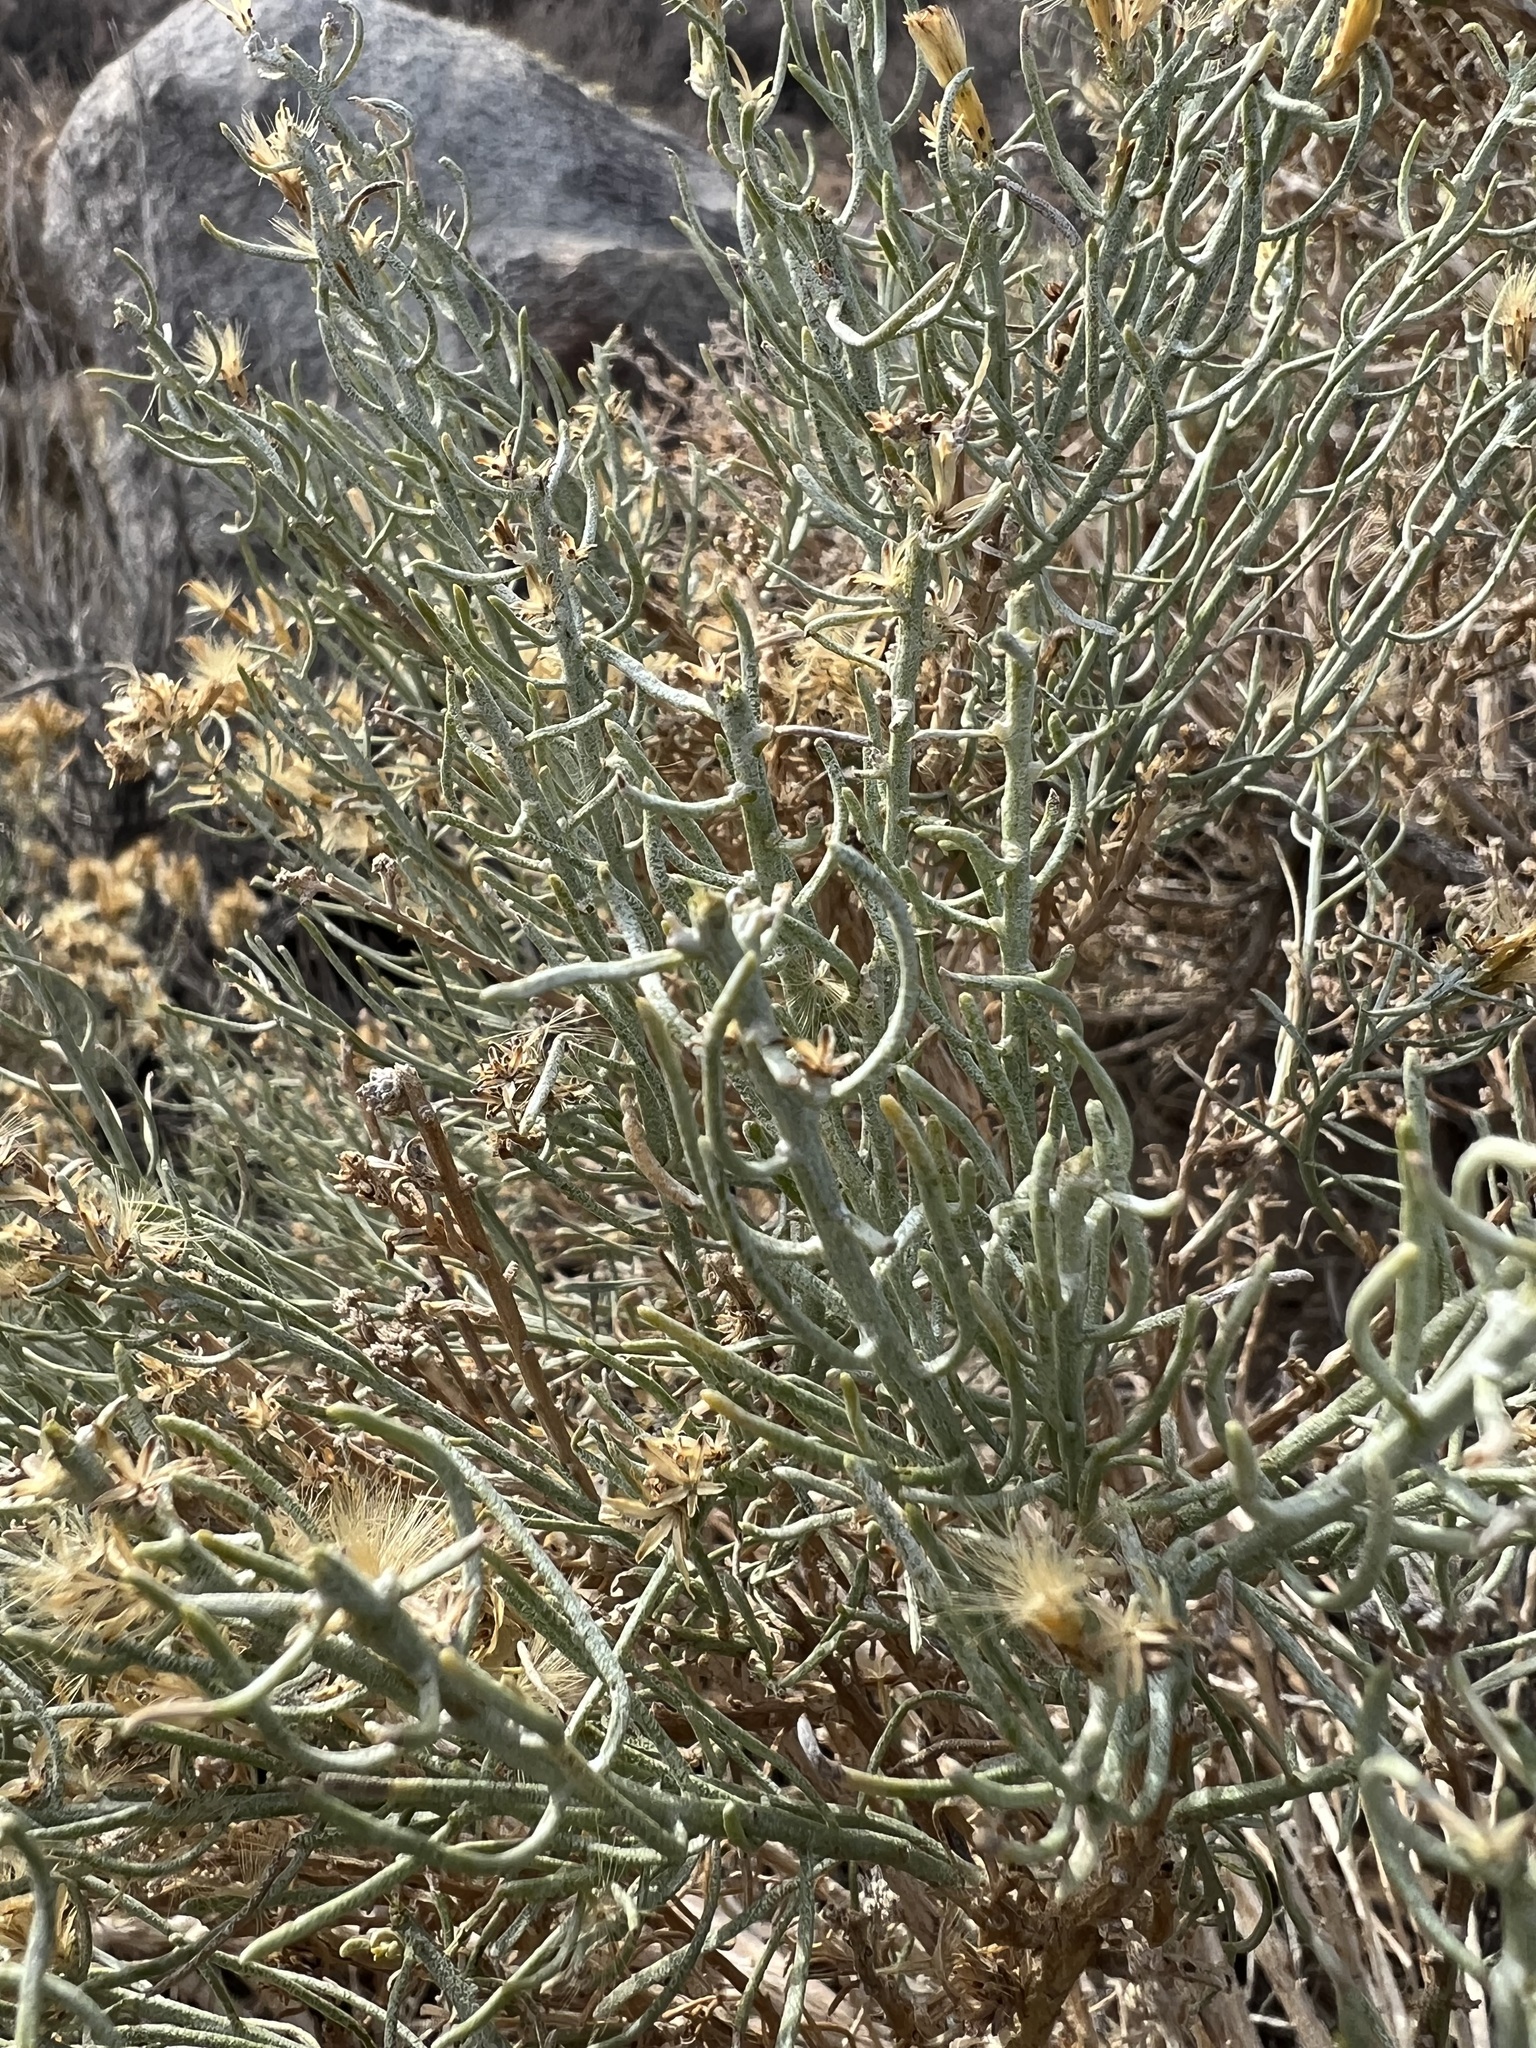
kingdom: Plantae
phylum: Tracheophyta
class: Magnoliopsida
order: Asterales
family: Asteraceae
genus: Ericameria
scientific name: Ericameria teretifolia
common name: Round-leaf rabbitbrush
